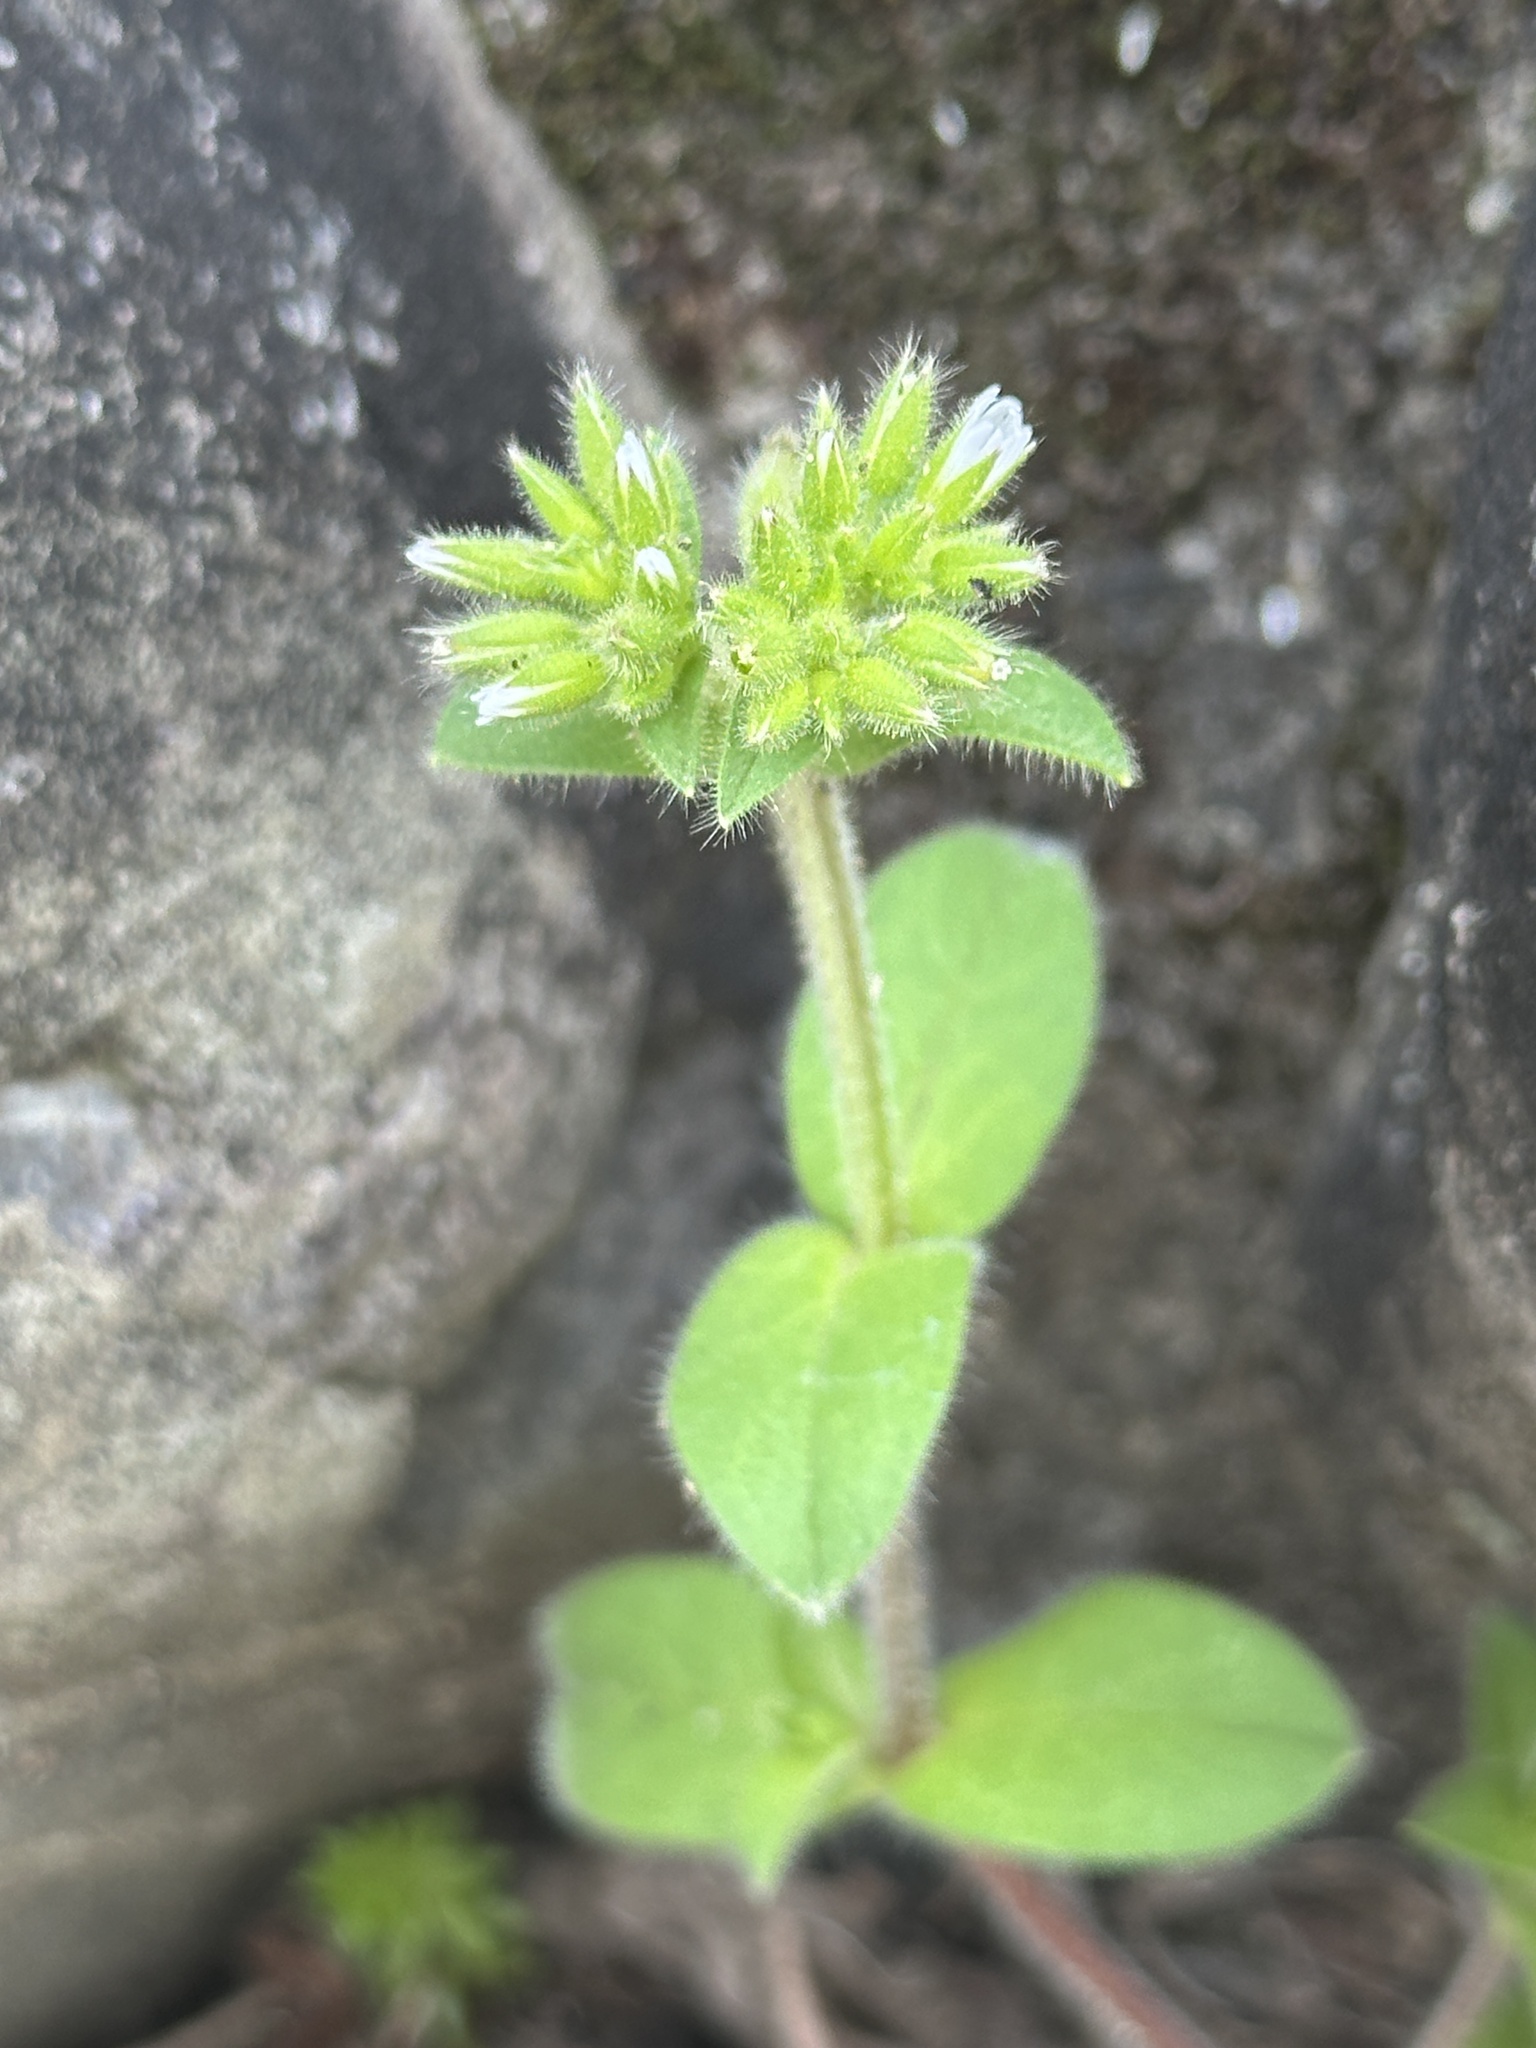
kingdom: Plantae
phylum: Tracheophyta
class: Magnoliopsida
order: Caryophyllales
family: Caryophyllaceae
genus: Cerastium
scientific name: Cerastium glomeratum
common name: Sticky chickweed
